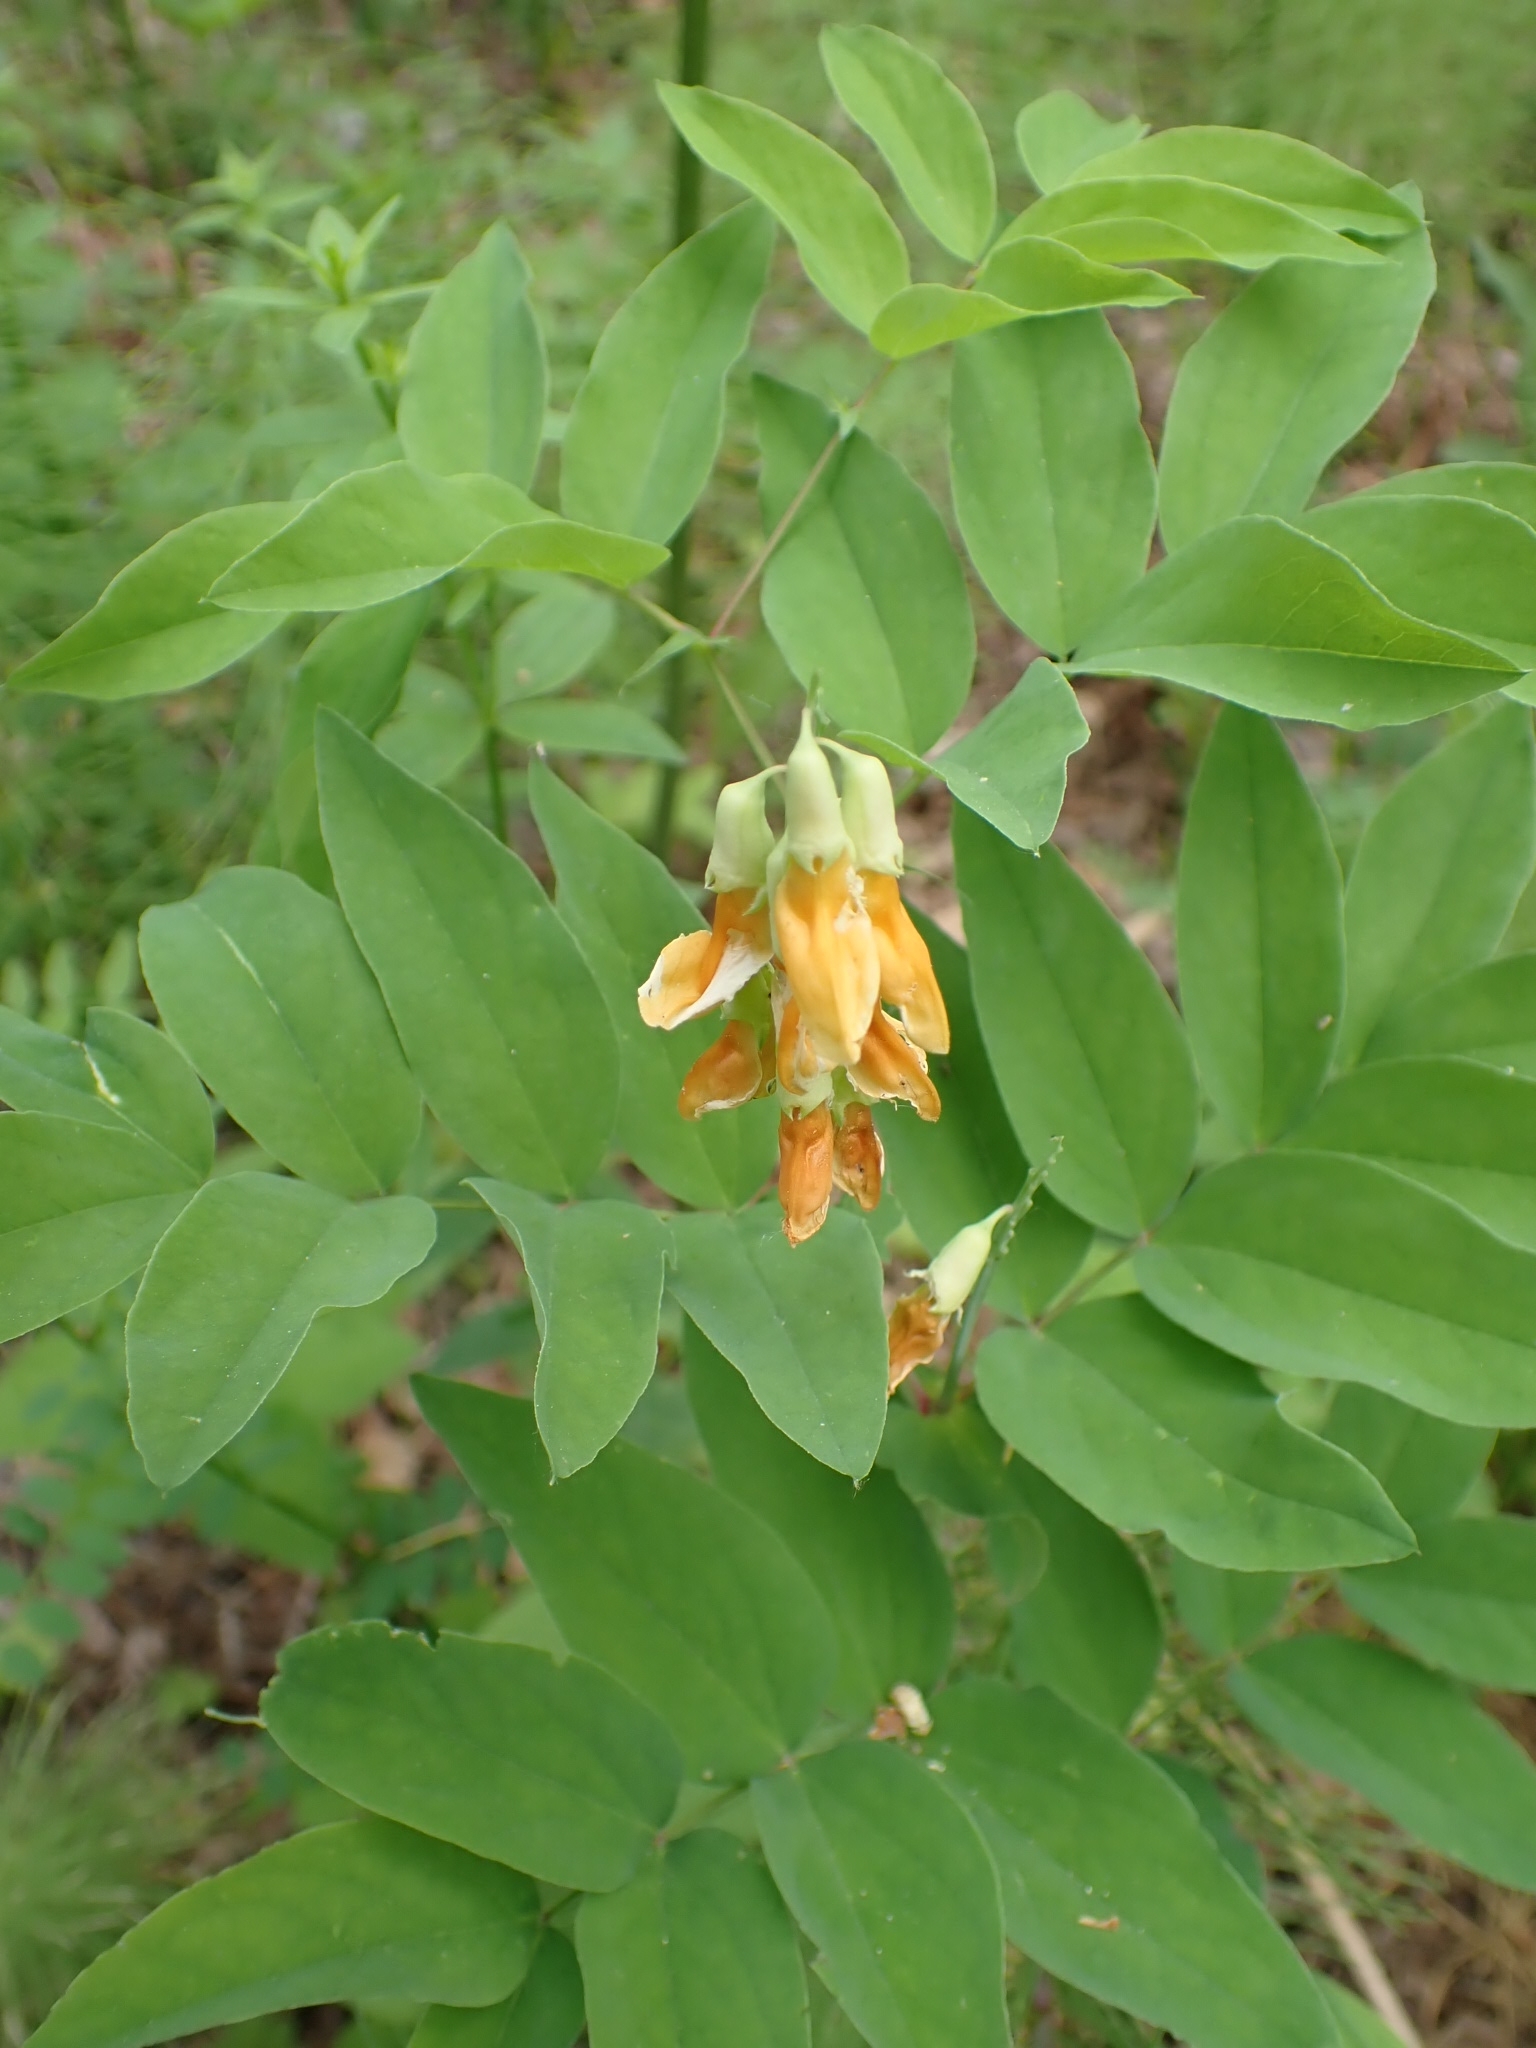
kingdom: Plantae
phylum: Tracheophyta
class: Magnoliopsida
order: Fabales
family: Fabaceae
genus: Lathyrus
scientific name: Lathyrus gmelinii
